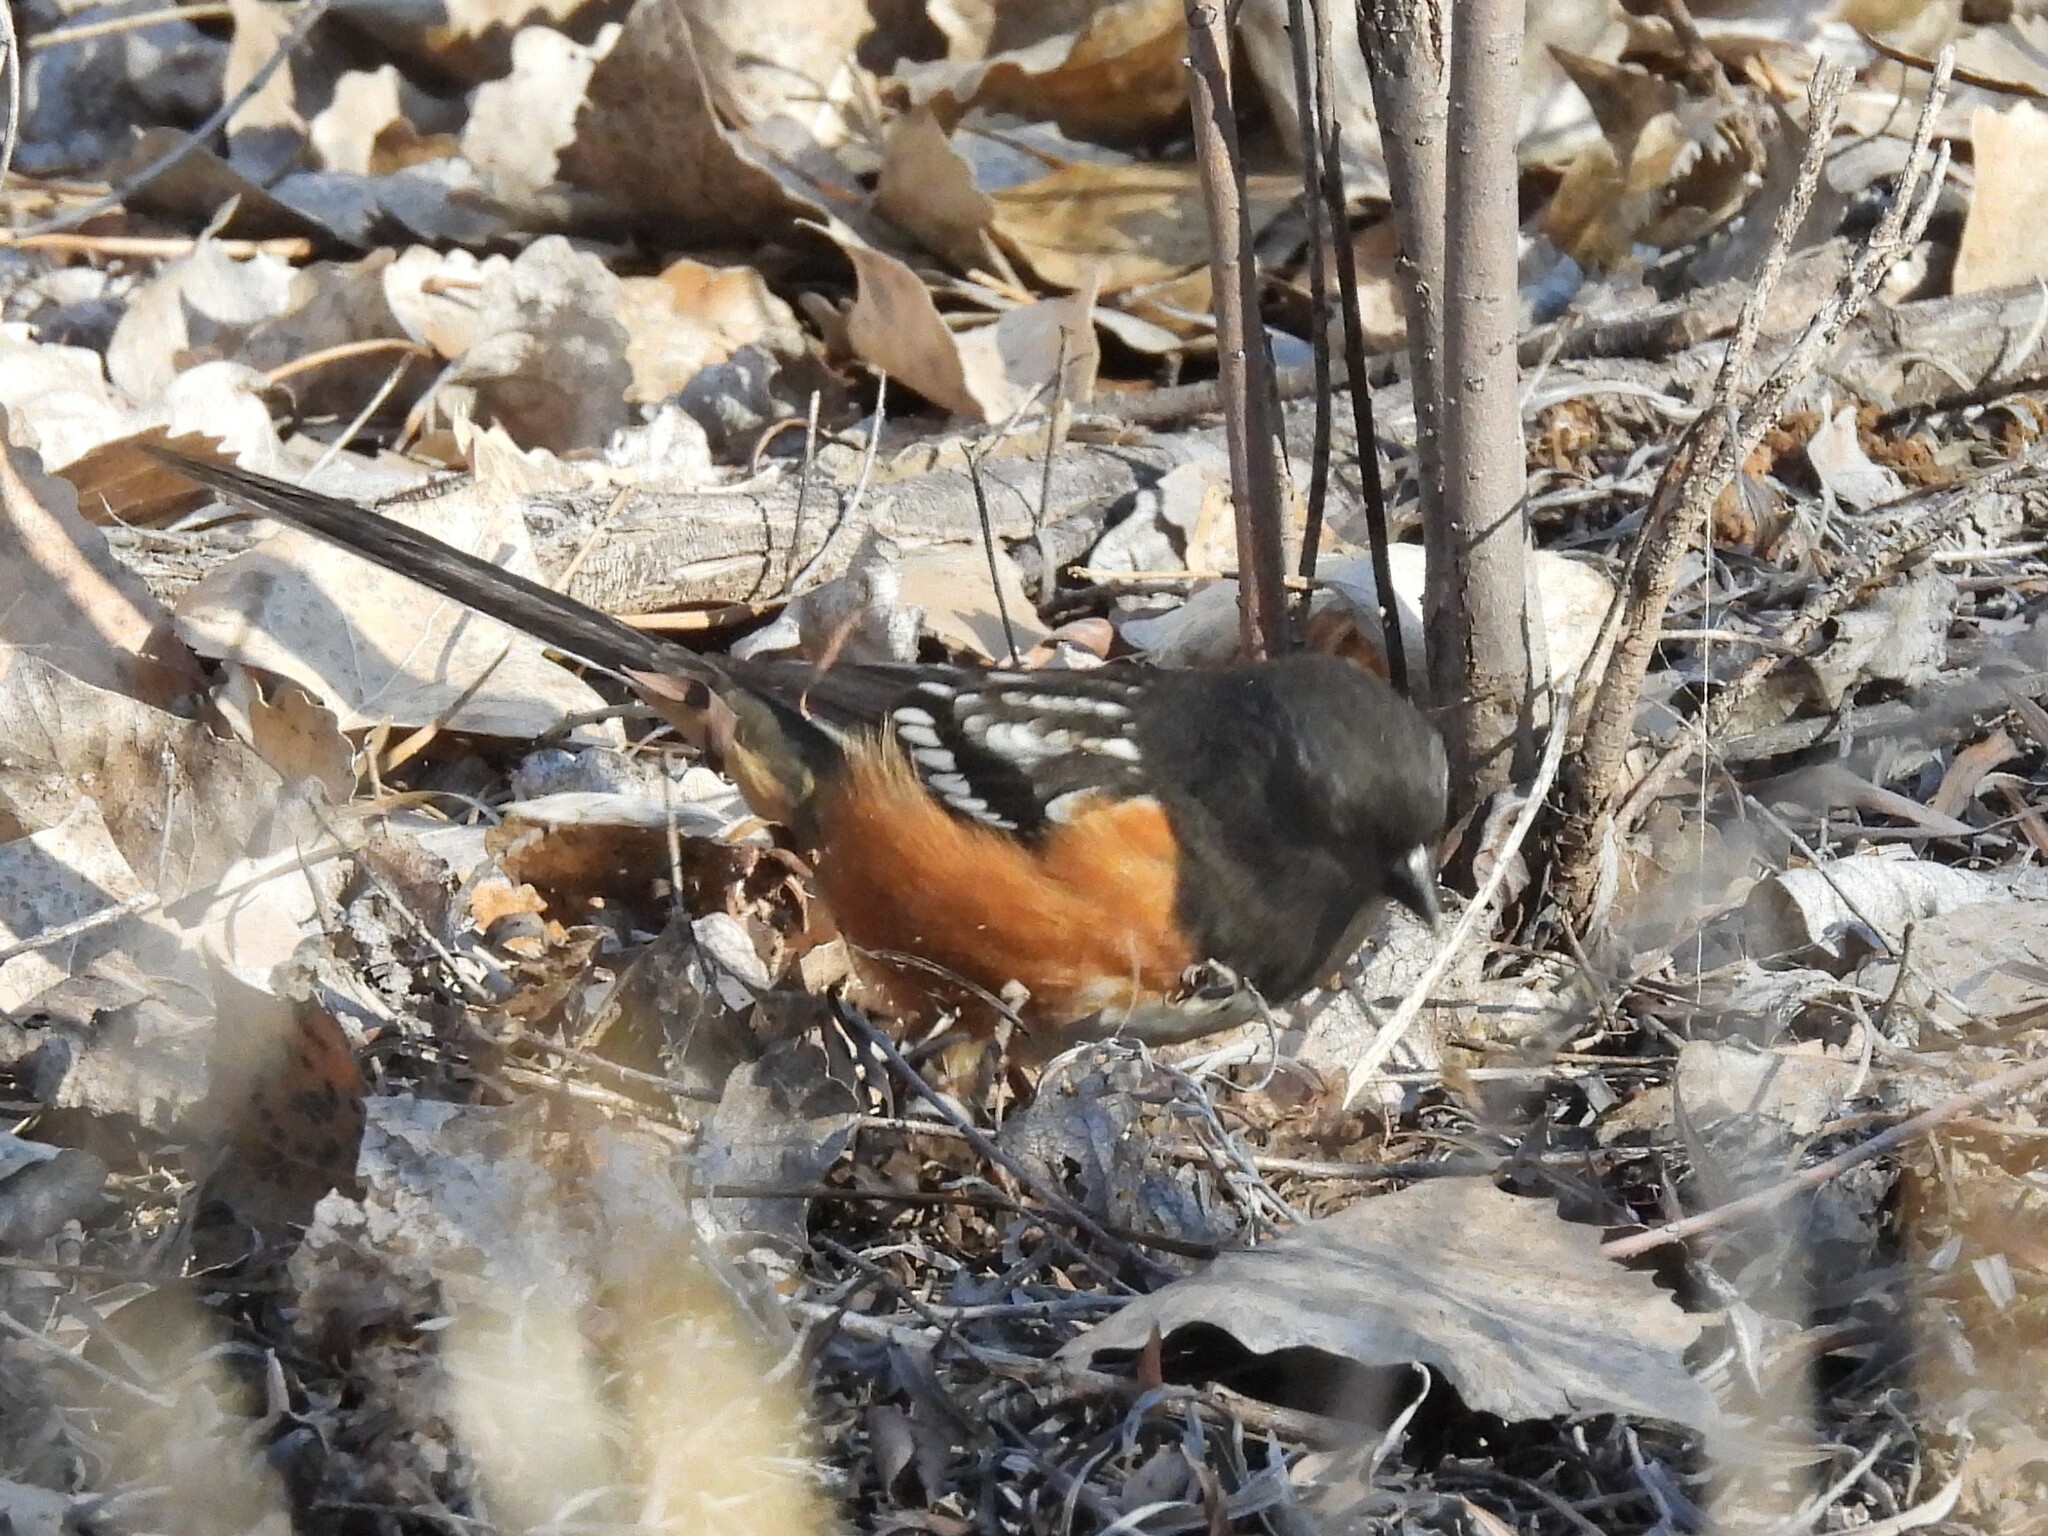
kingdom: Animalia
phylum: Chordata
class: Aves
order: Passeriformes
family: Passerellidae
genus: Pipilo
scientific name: Pipilo maculatus
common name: Spotted towhee
